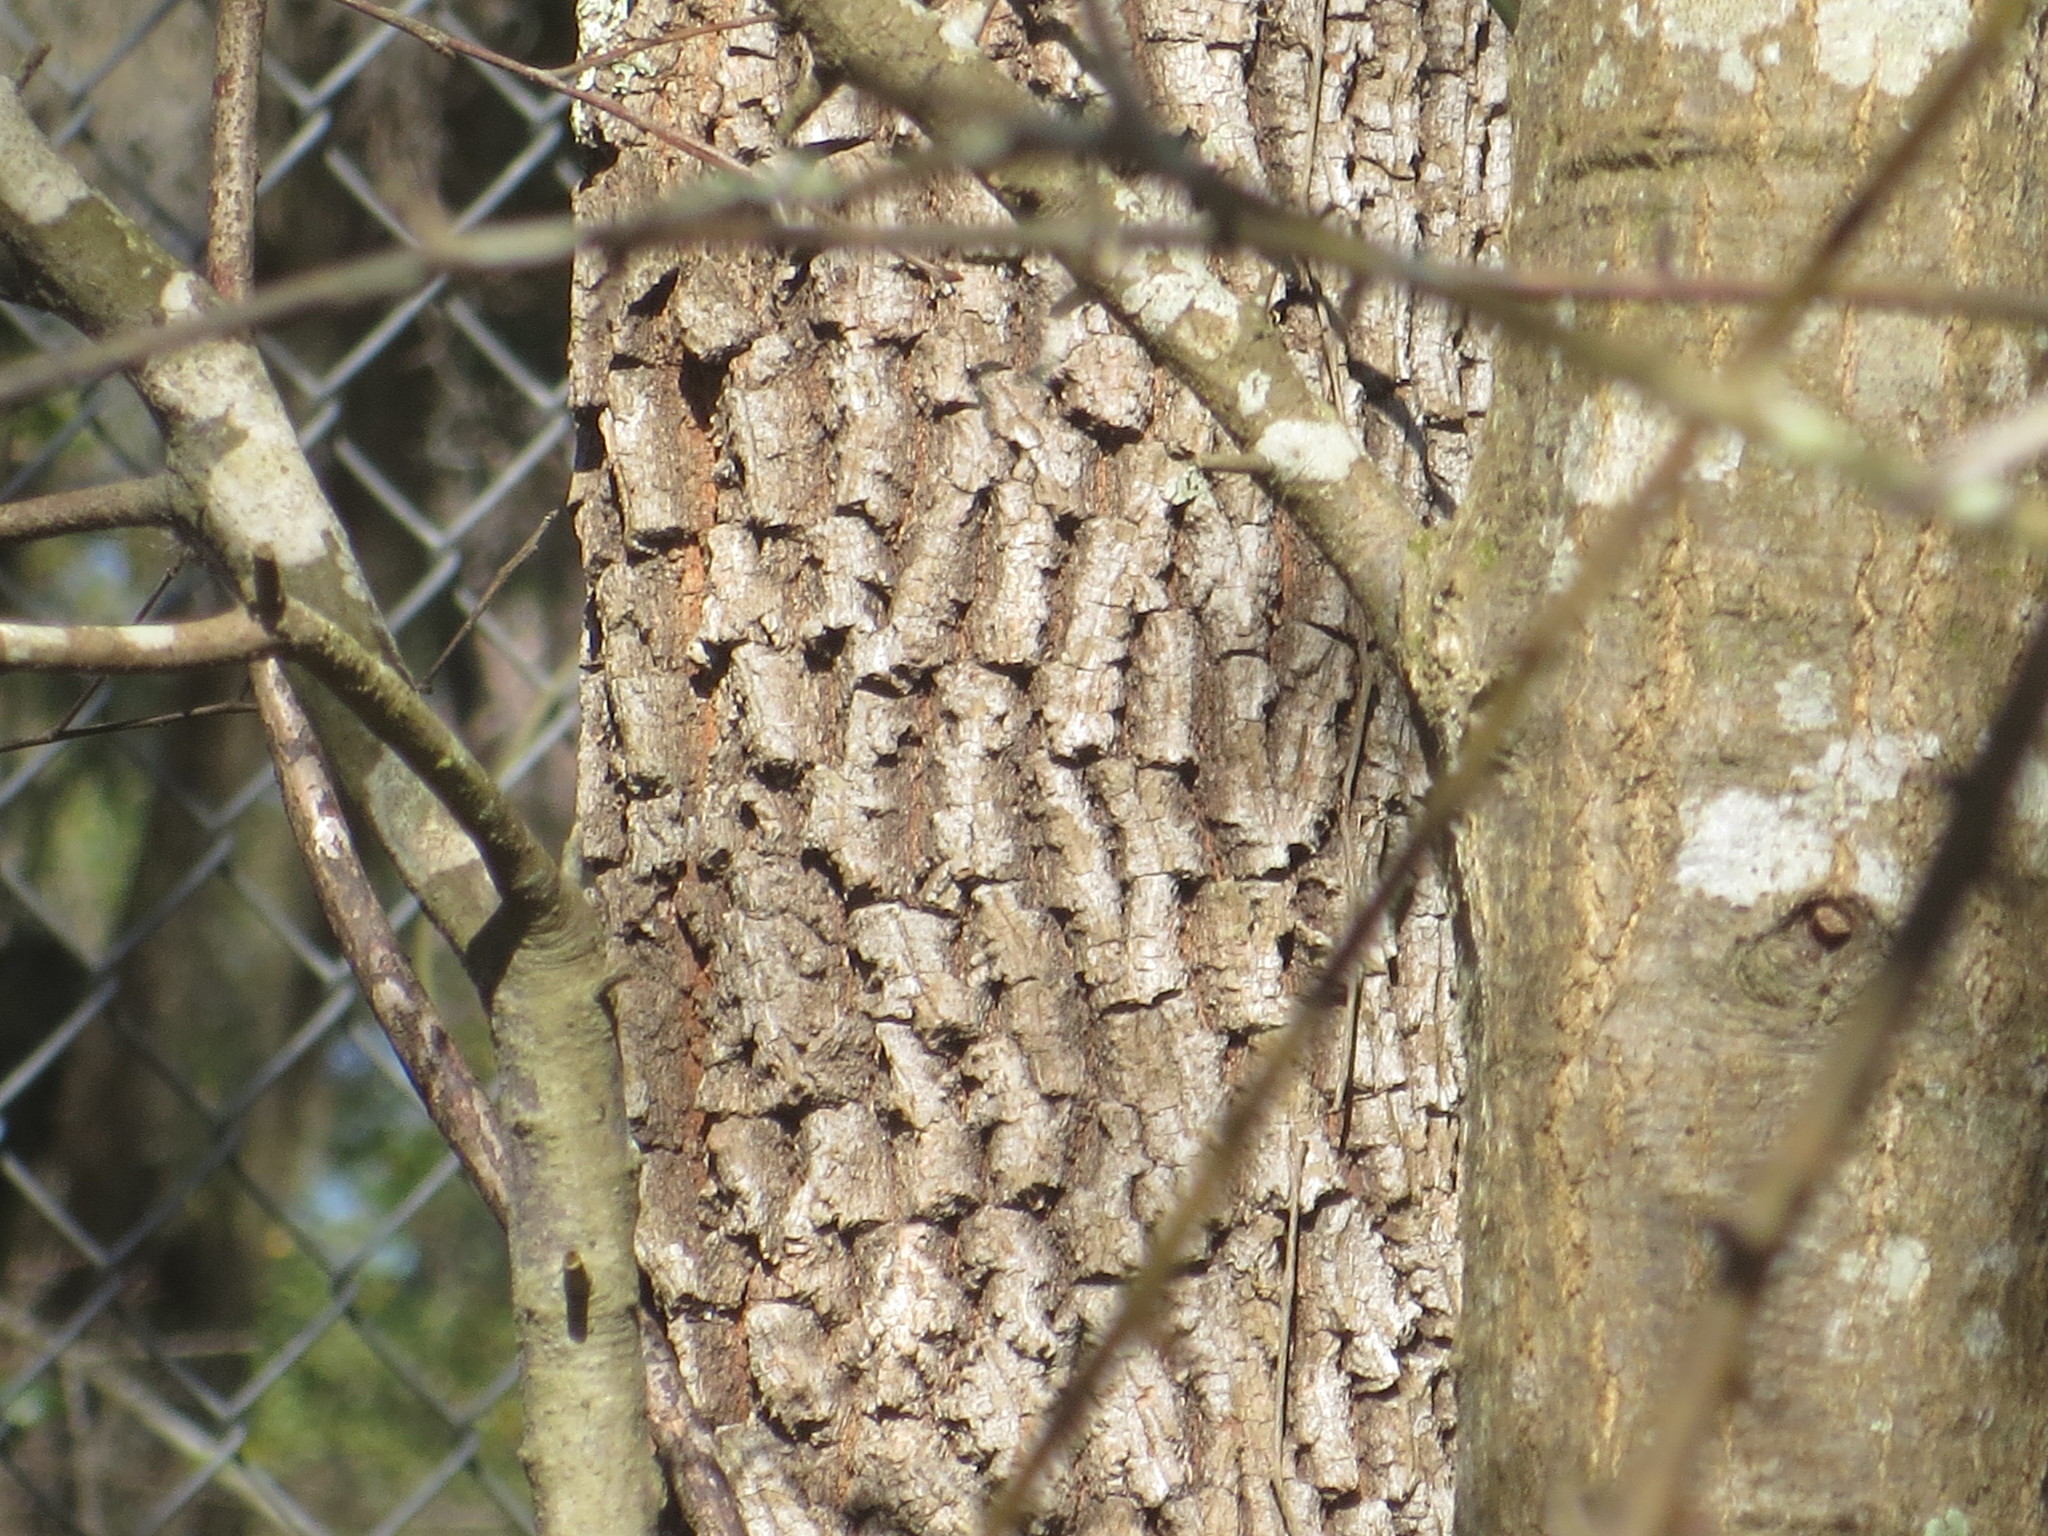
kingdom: Plantae
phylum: Tracheophyta
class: Magnoliopsida
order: Ericales
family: Ebenaceae
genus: Diospyros
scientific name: Diospyros virginiana
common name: Persimmon
